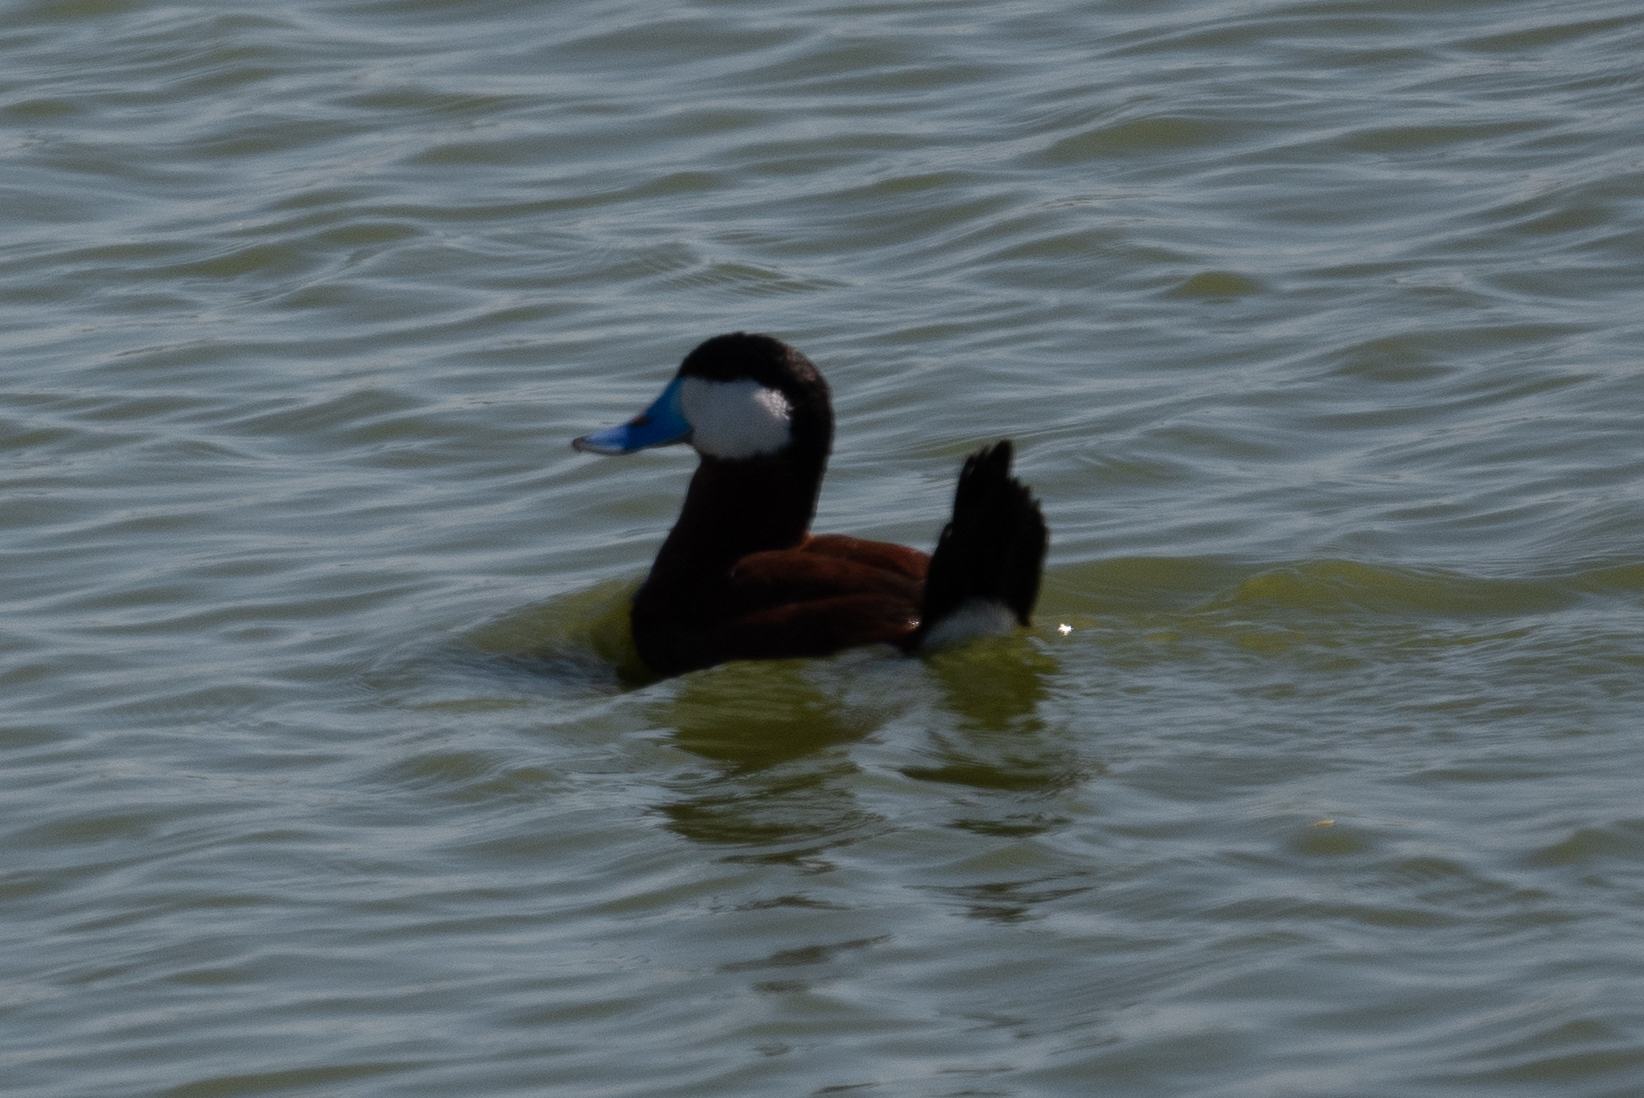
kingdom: Animalia
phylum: Chordata
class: Aves
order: Anseriformes
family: Anatidae
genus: Oxyura
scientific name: Oxyura jamaicensis
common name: Ruddy duck
